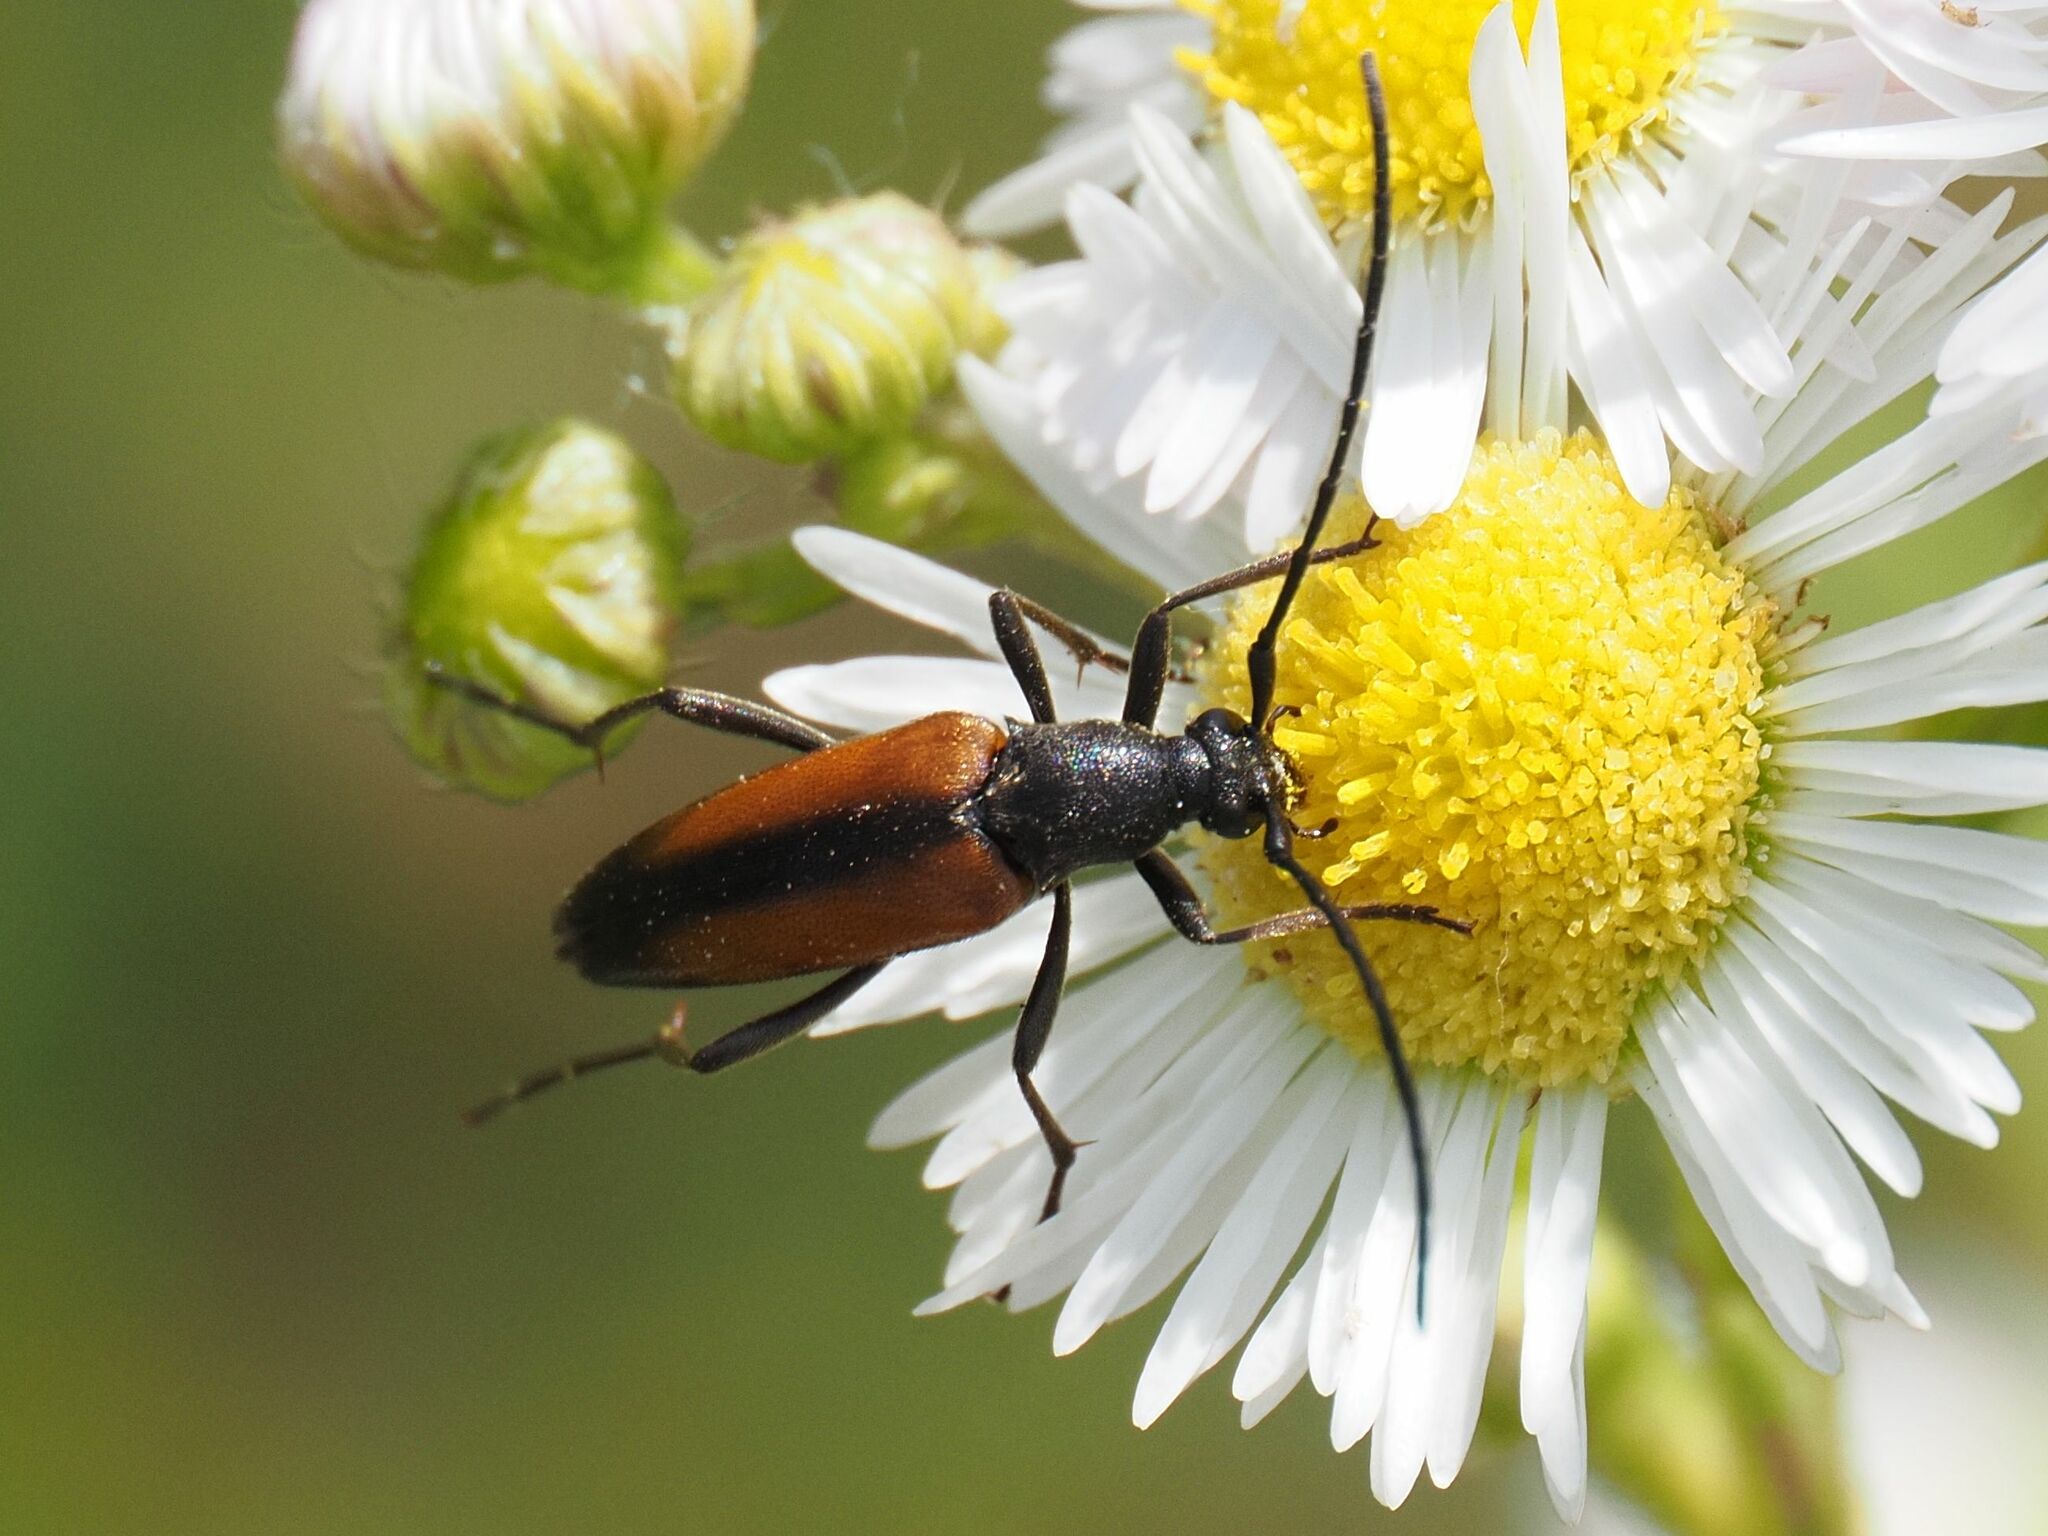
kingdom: Animalia
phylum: Arthropoda
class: Insecta
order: Coleoptera
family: Cerambycidae
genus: Stenurella
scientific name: Stenurella melanura
